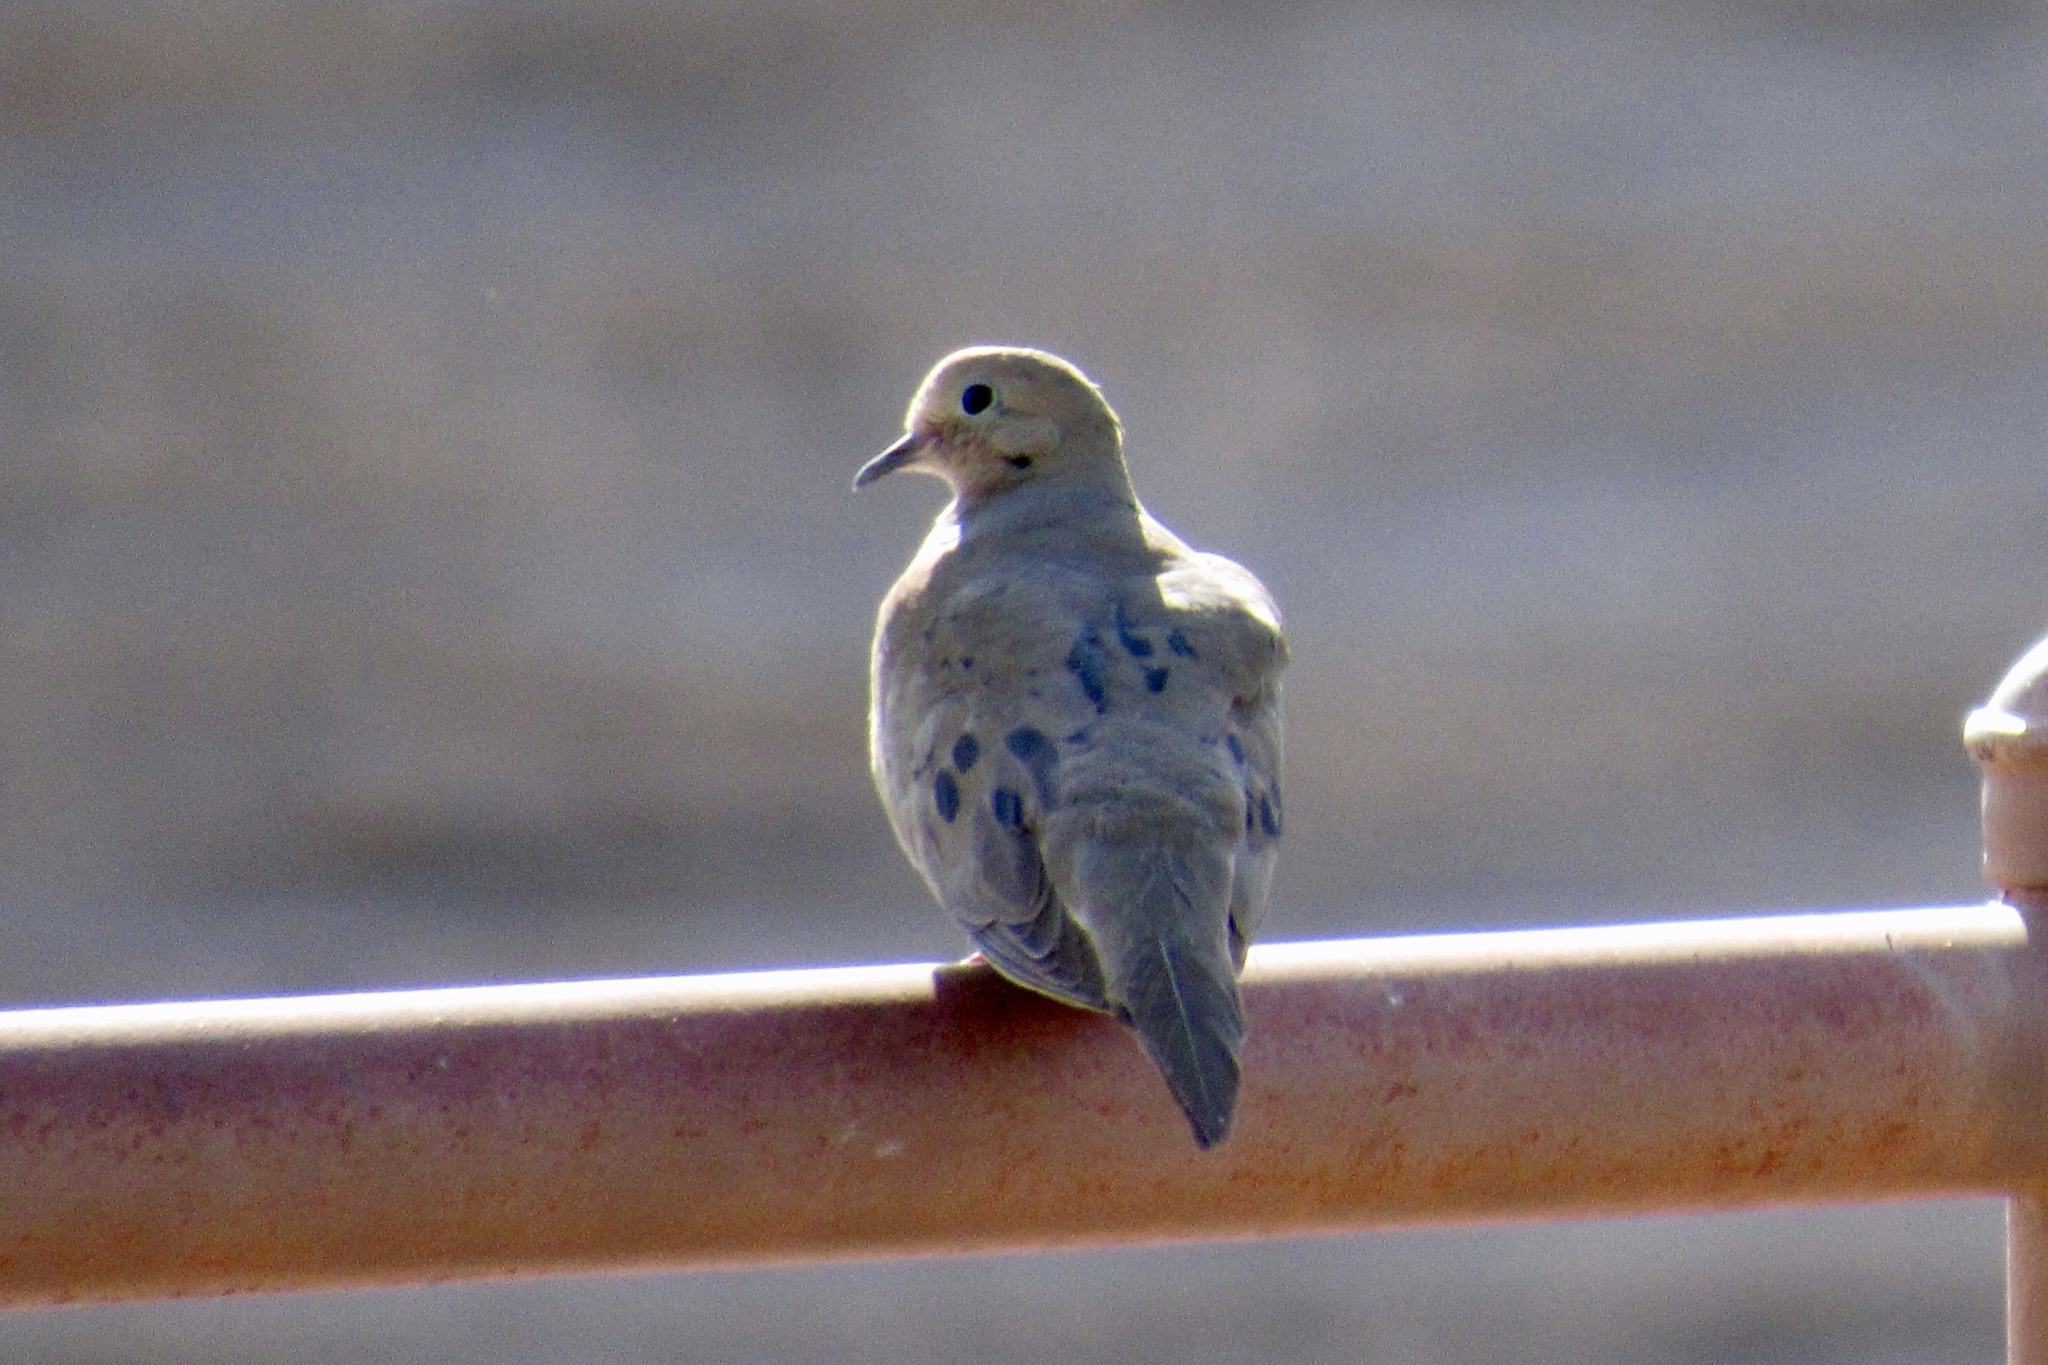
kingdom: Animalia
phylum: Chordata
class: Aves
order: Columbiformes
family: Columbidae
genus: Zenaida
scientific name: Zenaida macroura
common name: Mourning dove
